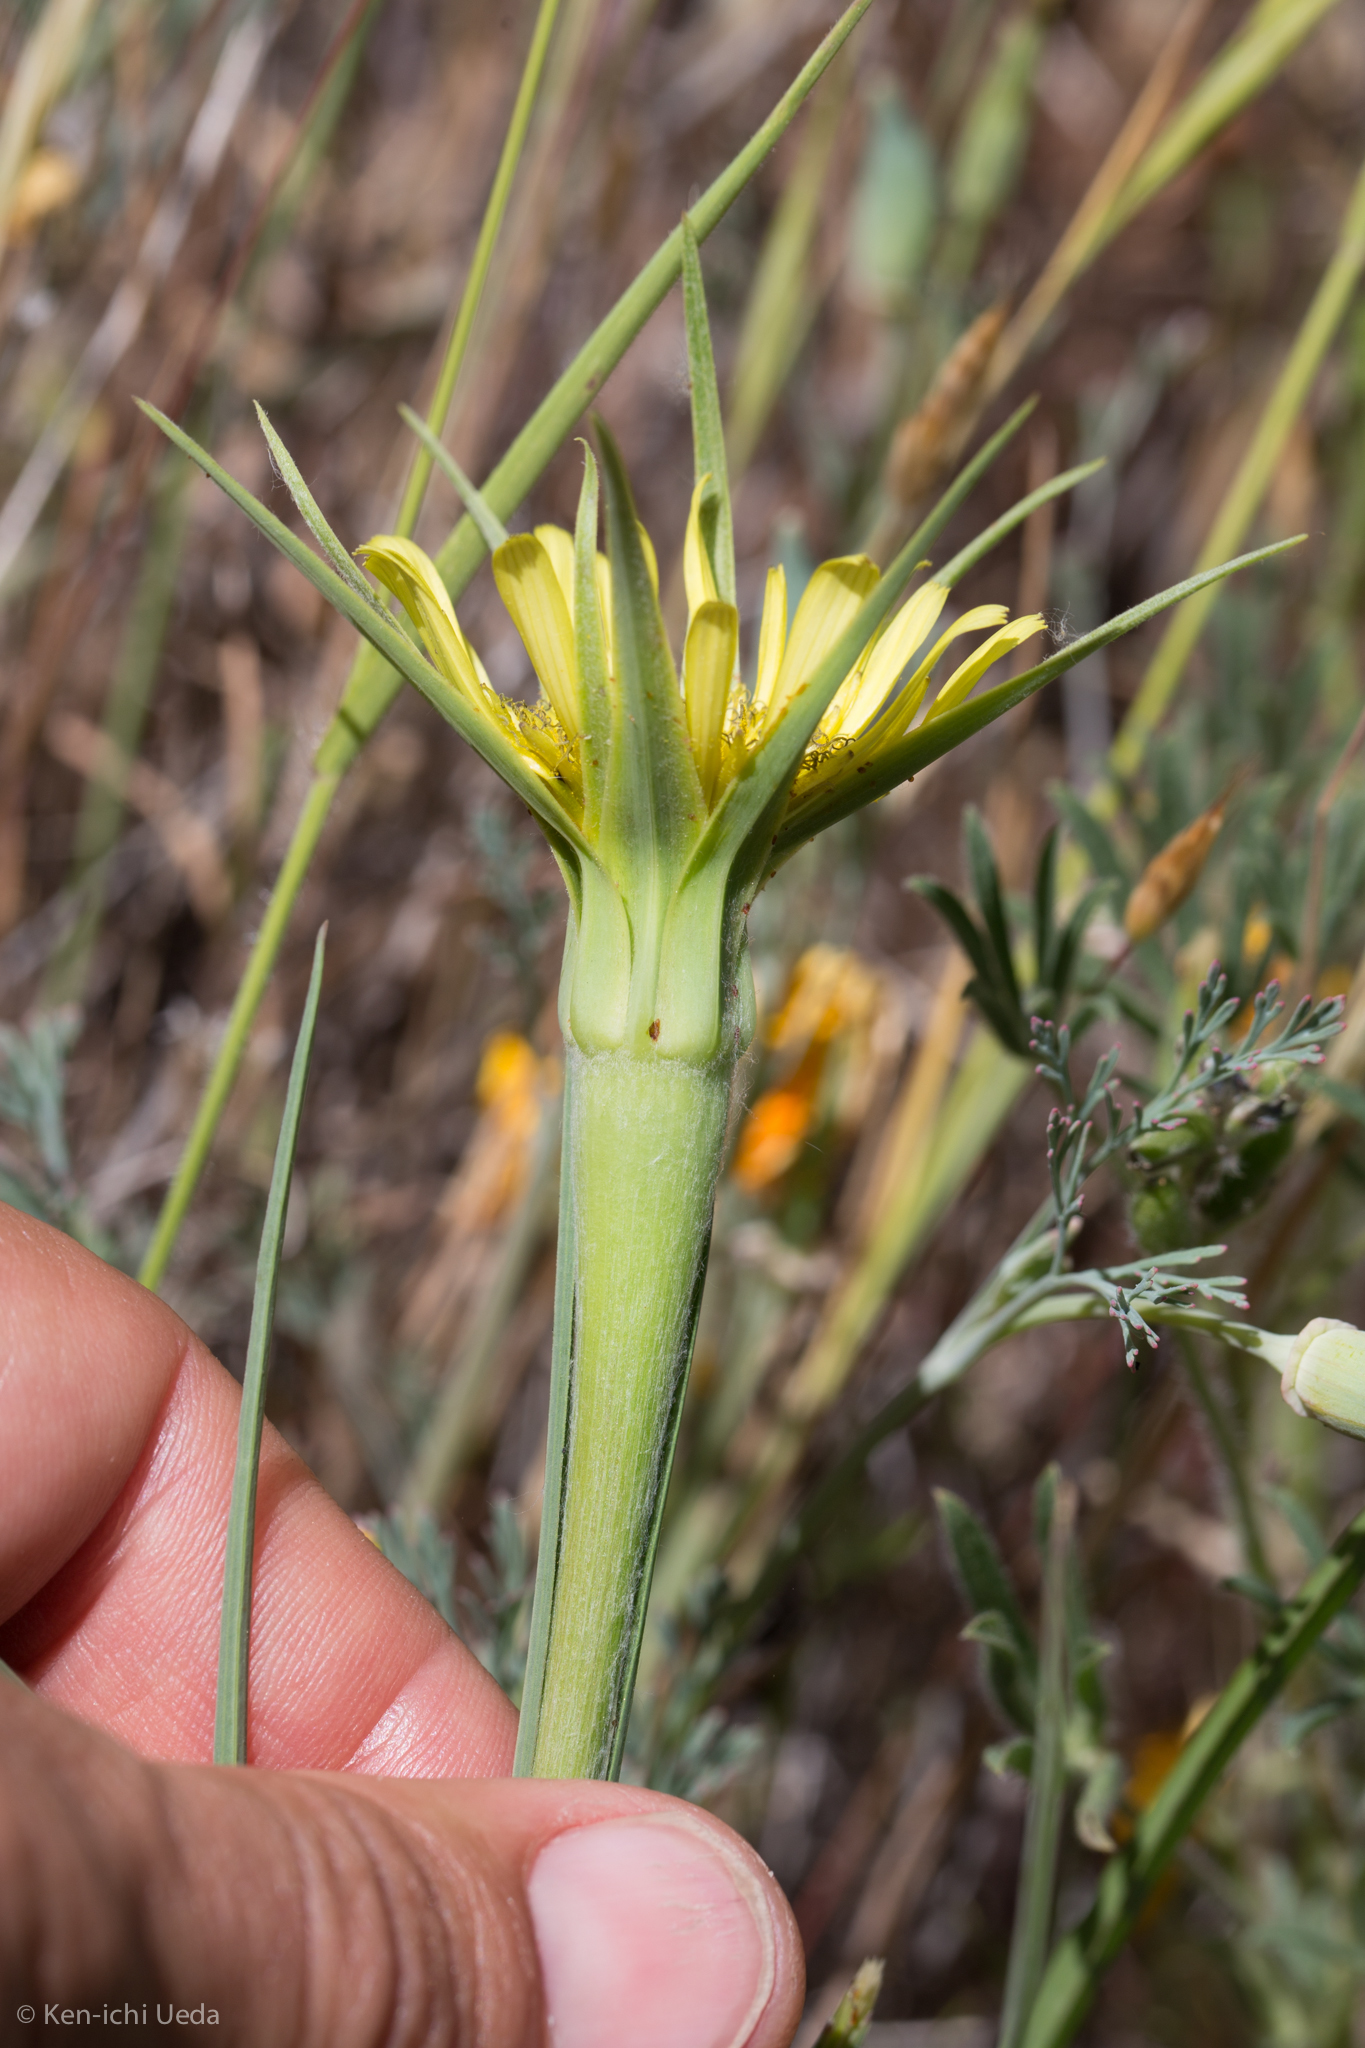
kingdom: Plantae
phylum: Tracheophyta
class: Magnoliopsida
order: Asterales
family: Asteraceae
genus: Tragopogon
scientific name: Tragopogon dubius
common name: Yellow salsify
